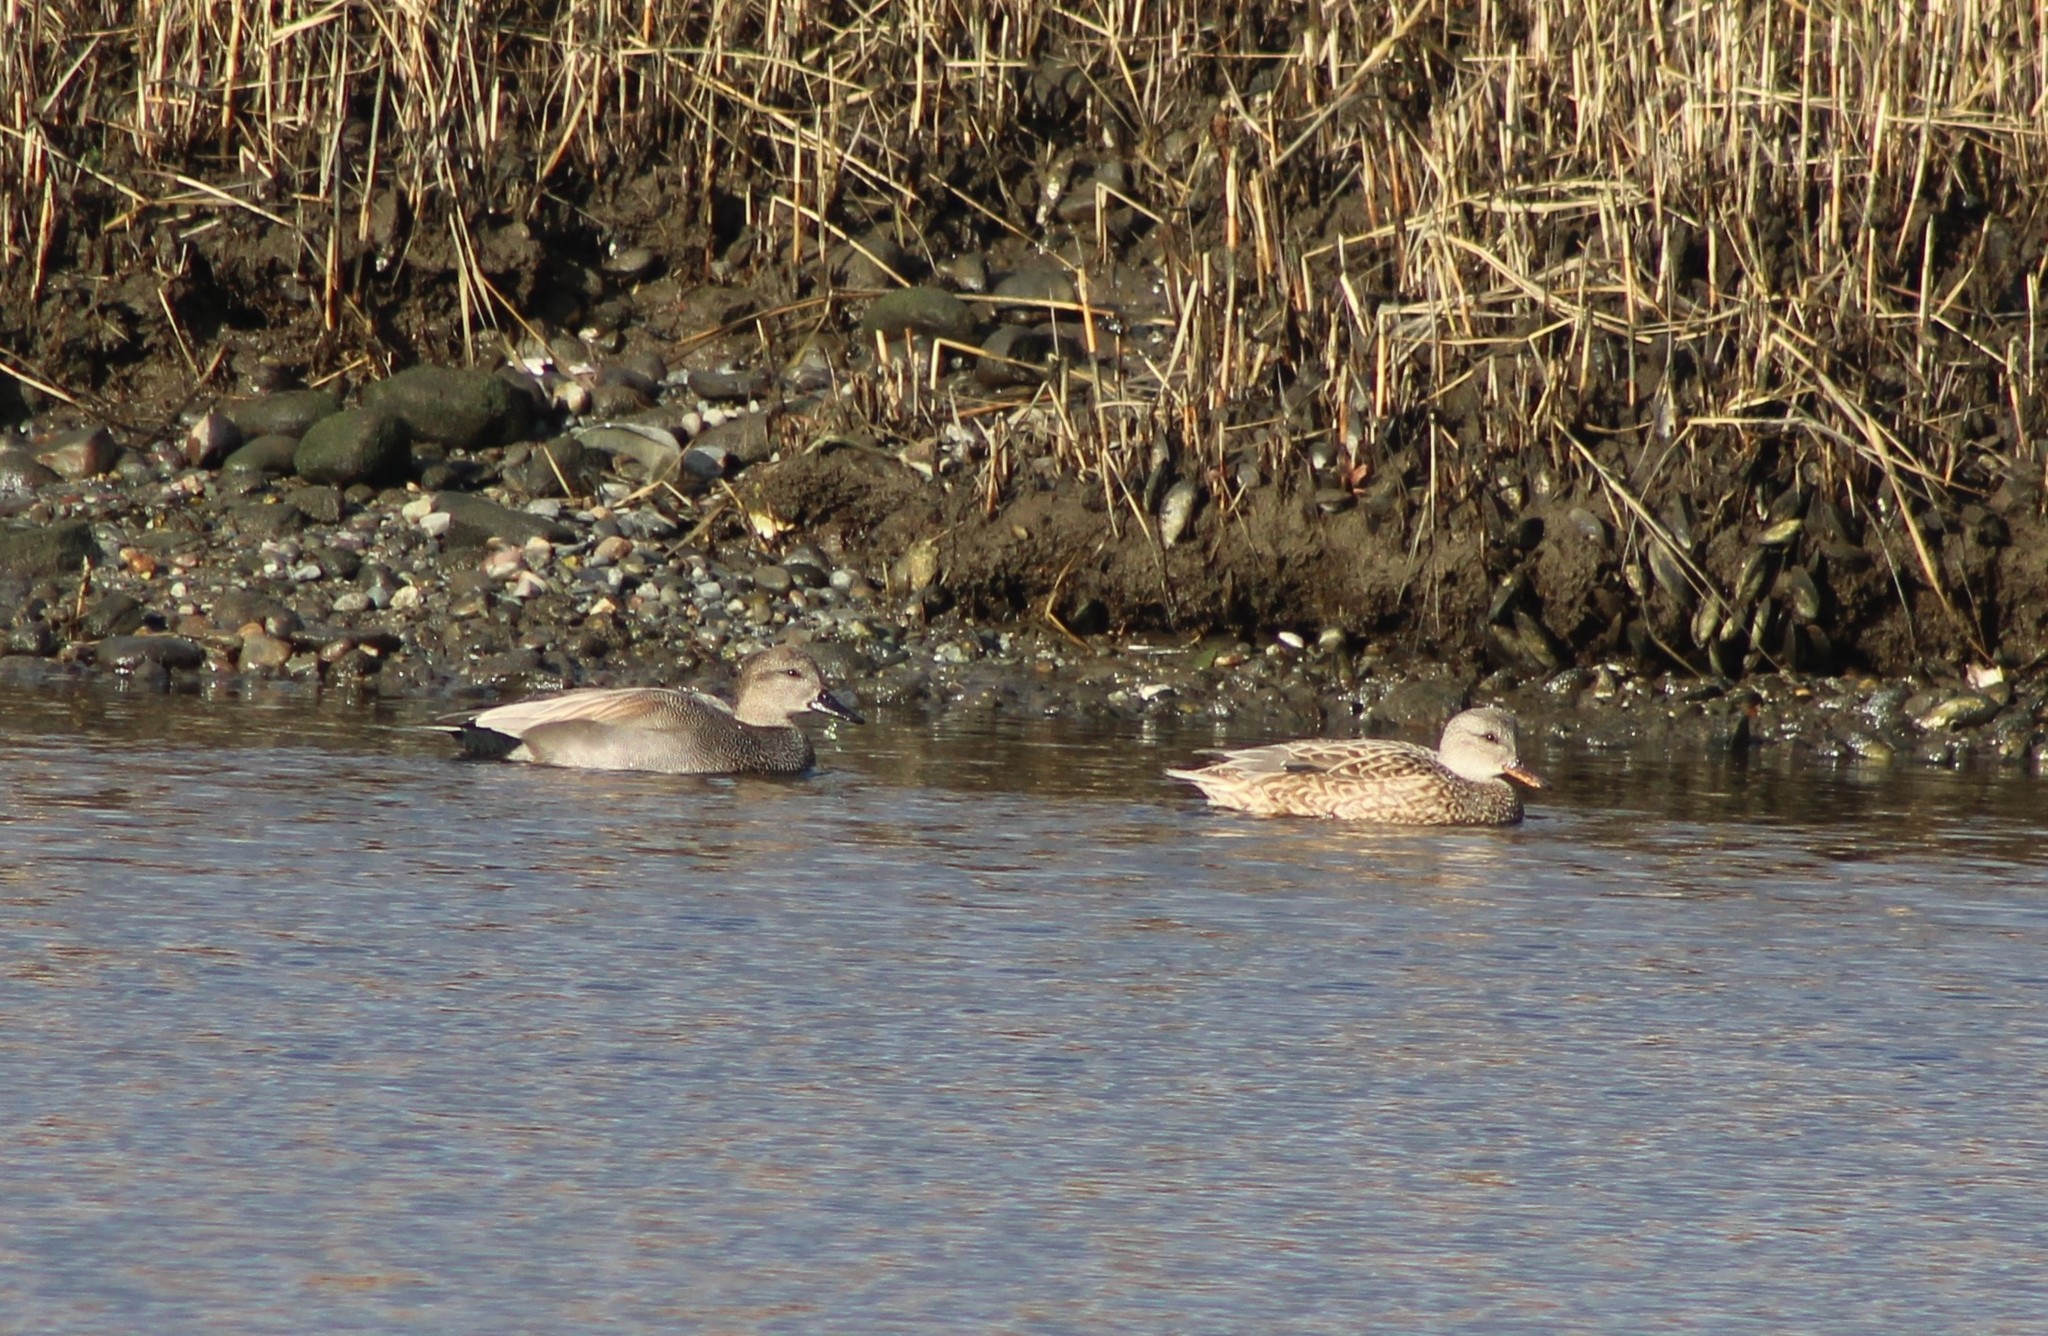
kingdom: Animalia
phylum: Chordata
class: Aves
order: Anseriformes
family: Anatidae
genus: Mareca
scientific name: Mareca strepera
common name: Gadwall
